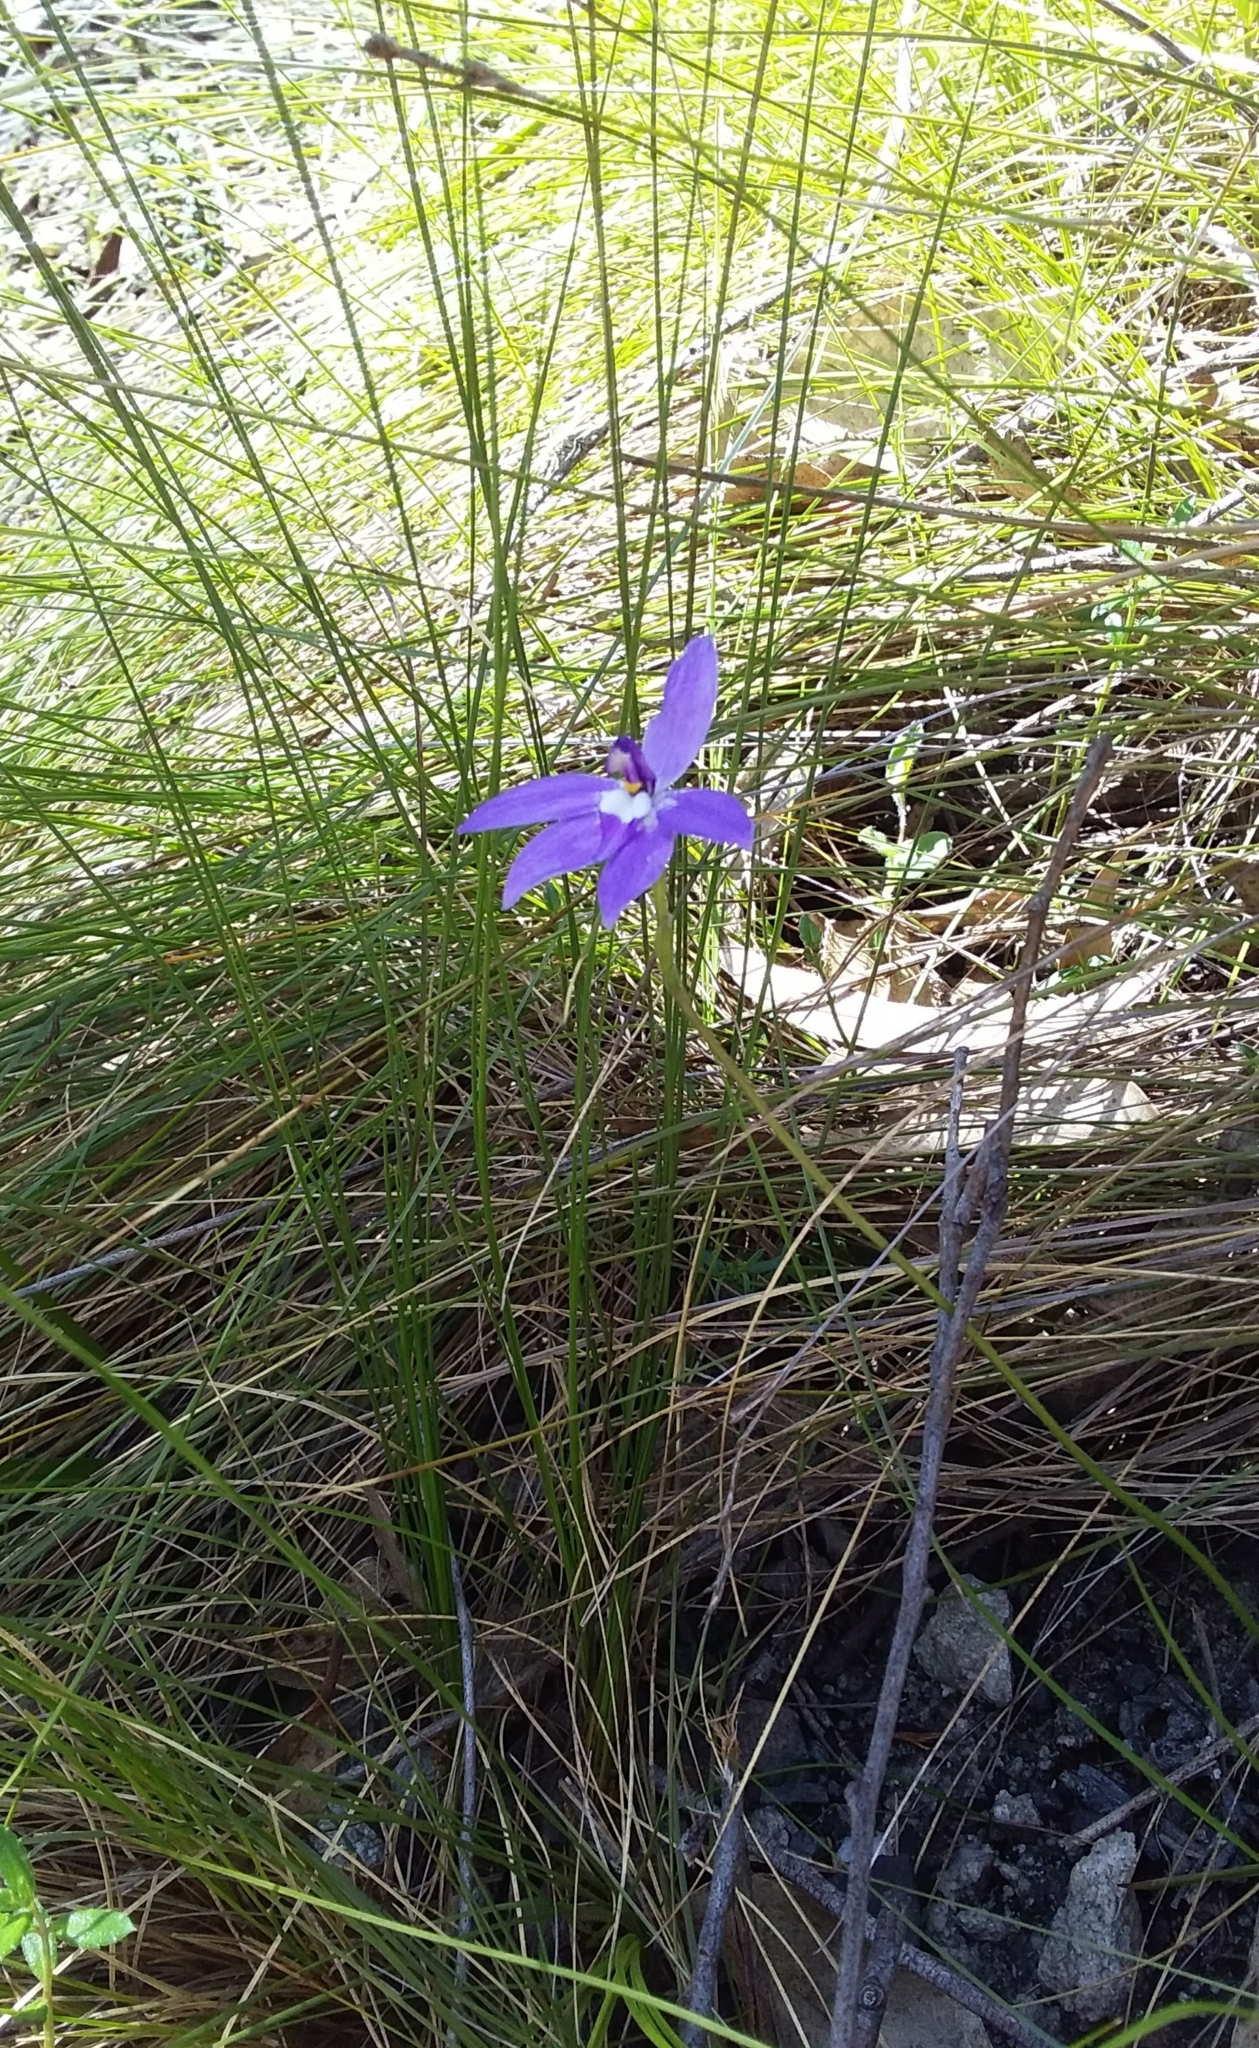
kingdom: Plantae
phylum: Tracheophyta
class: Liliopsida
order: Asparagales
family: Orchidaceae
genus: Caladenia
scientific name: Caladenia major
